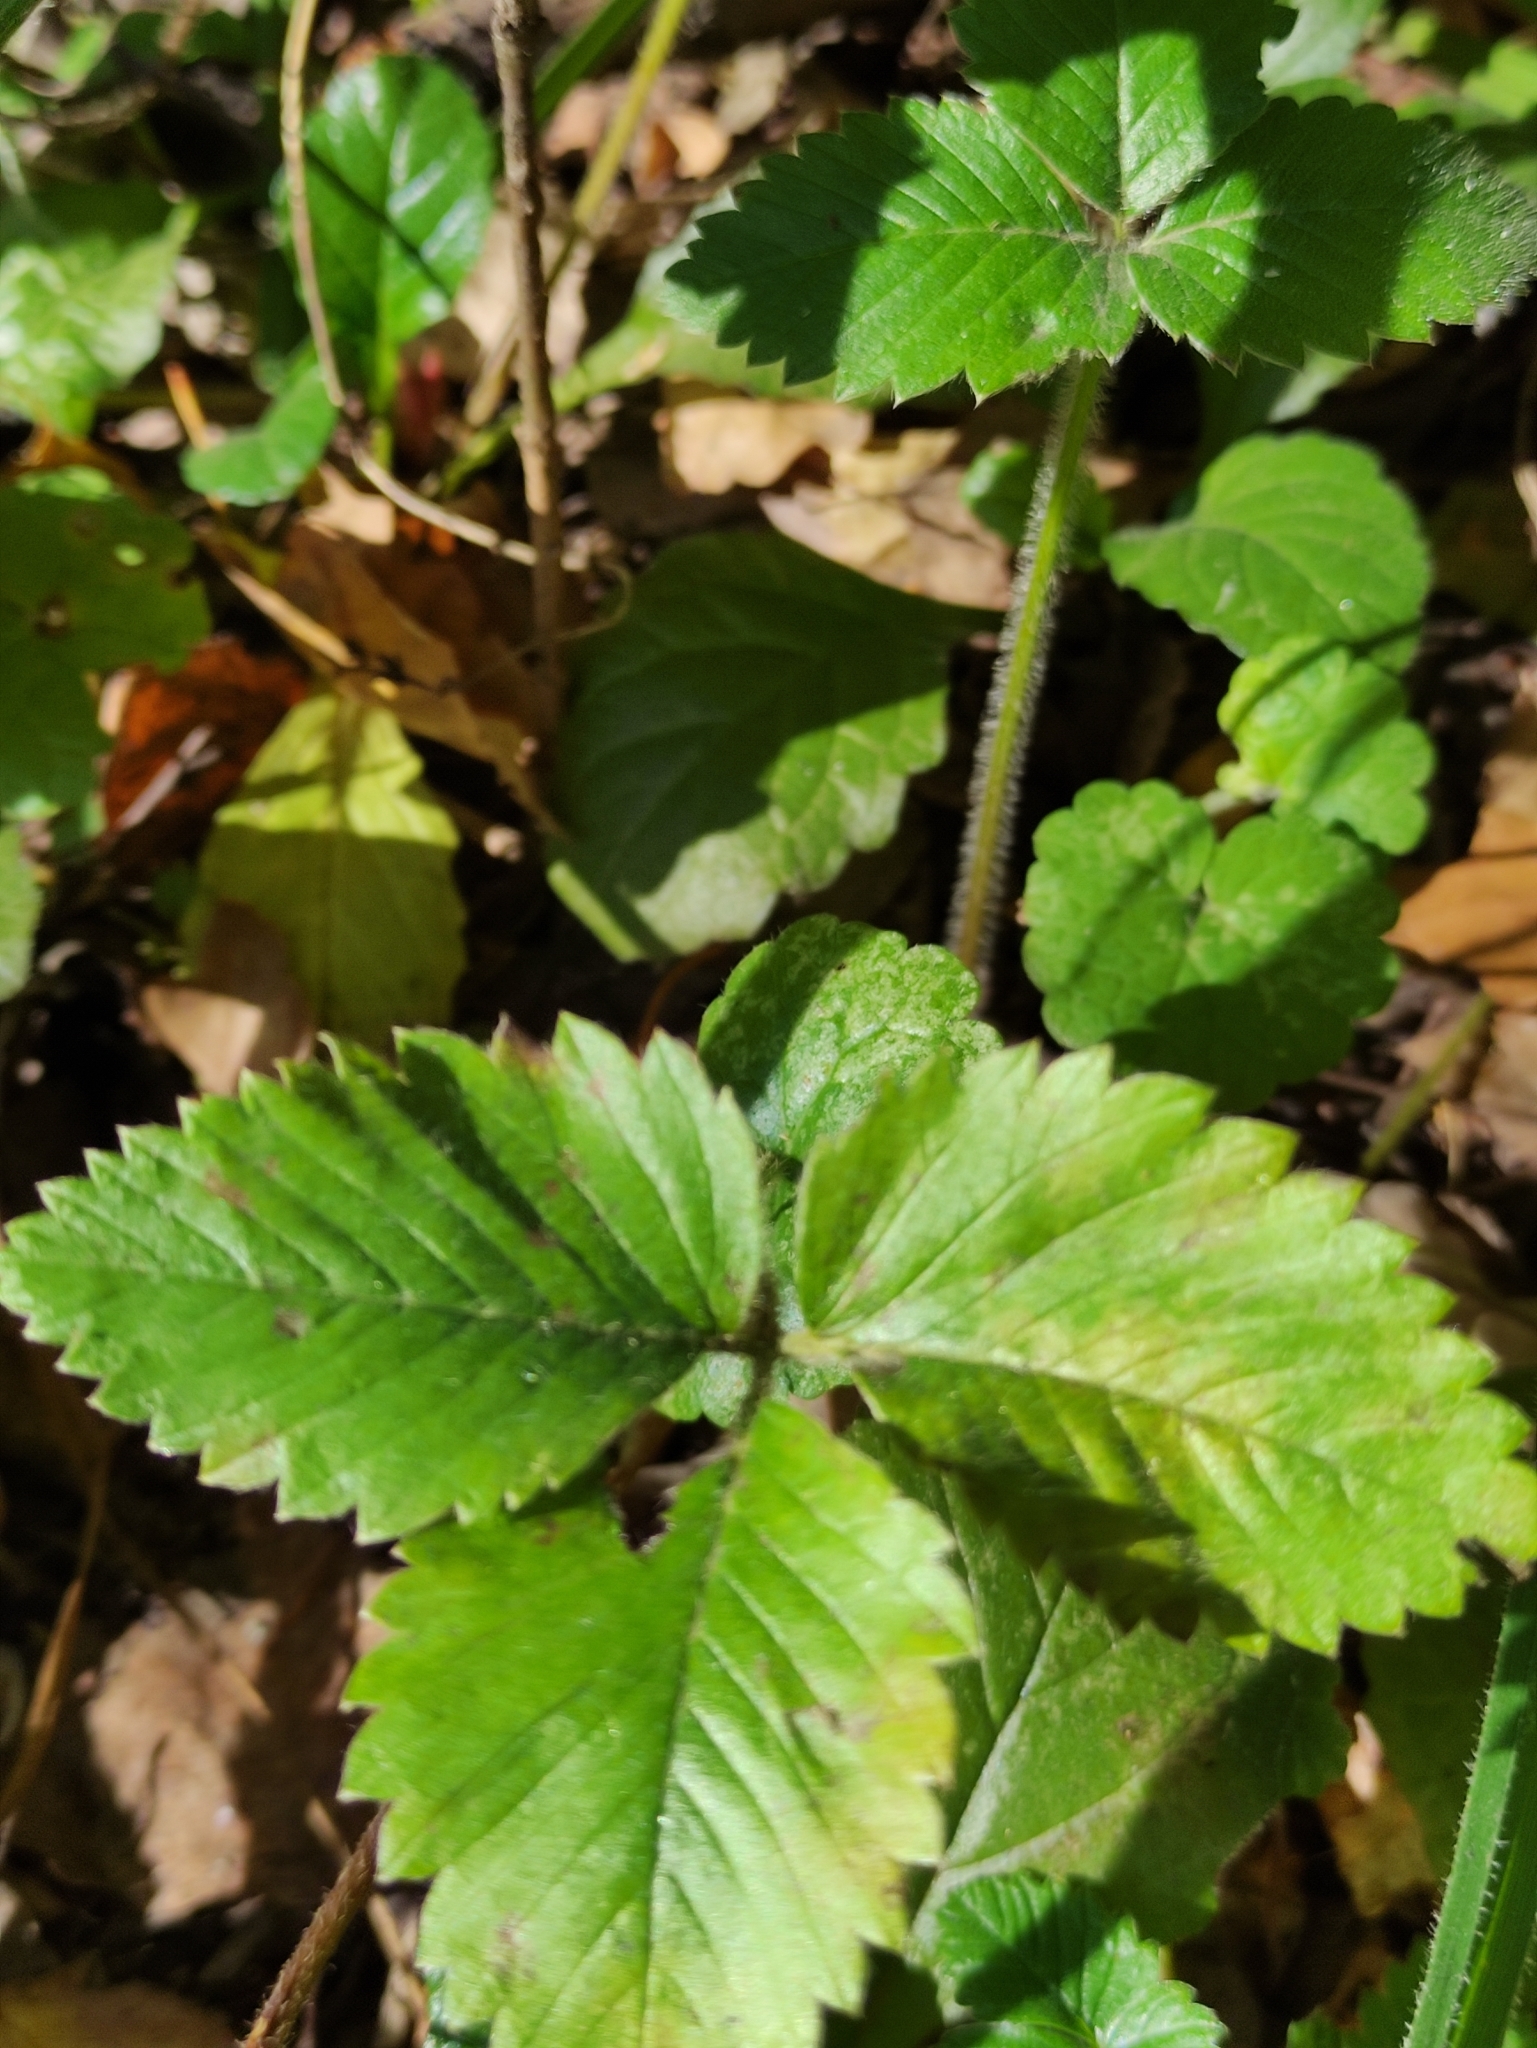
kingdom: Plantae
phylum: Tracheophyta
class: Magnoliopsida
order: Rosales
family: Rosaceae
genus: Fragaria
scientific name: Fragaria moschata
